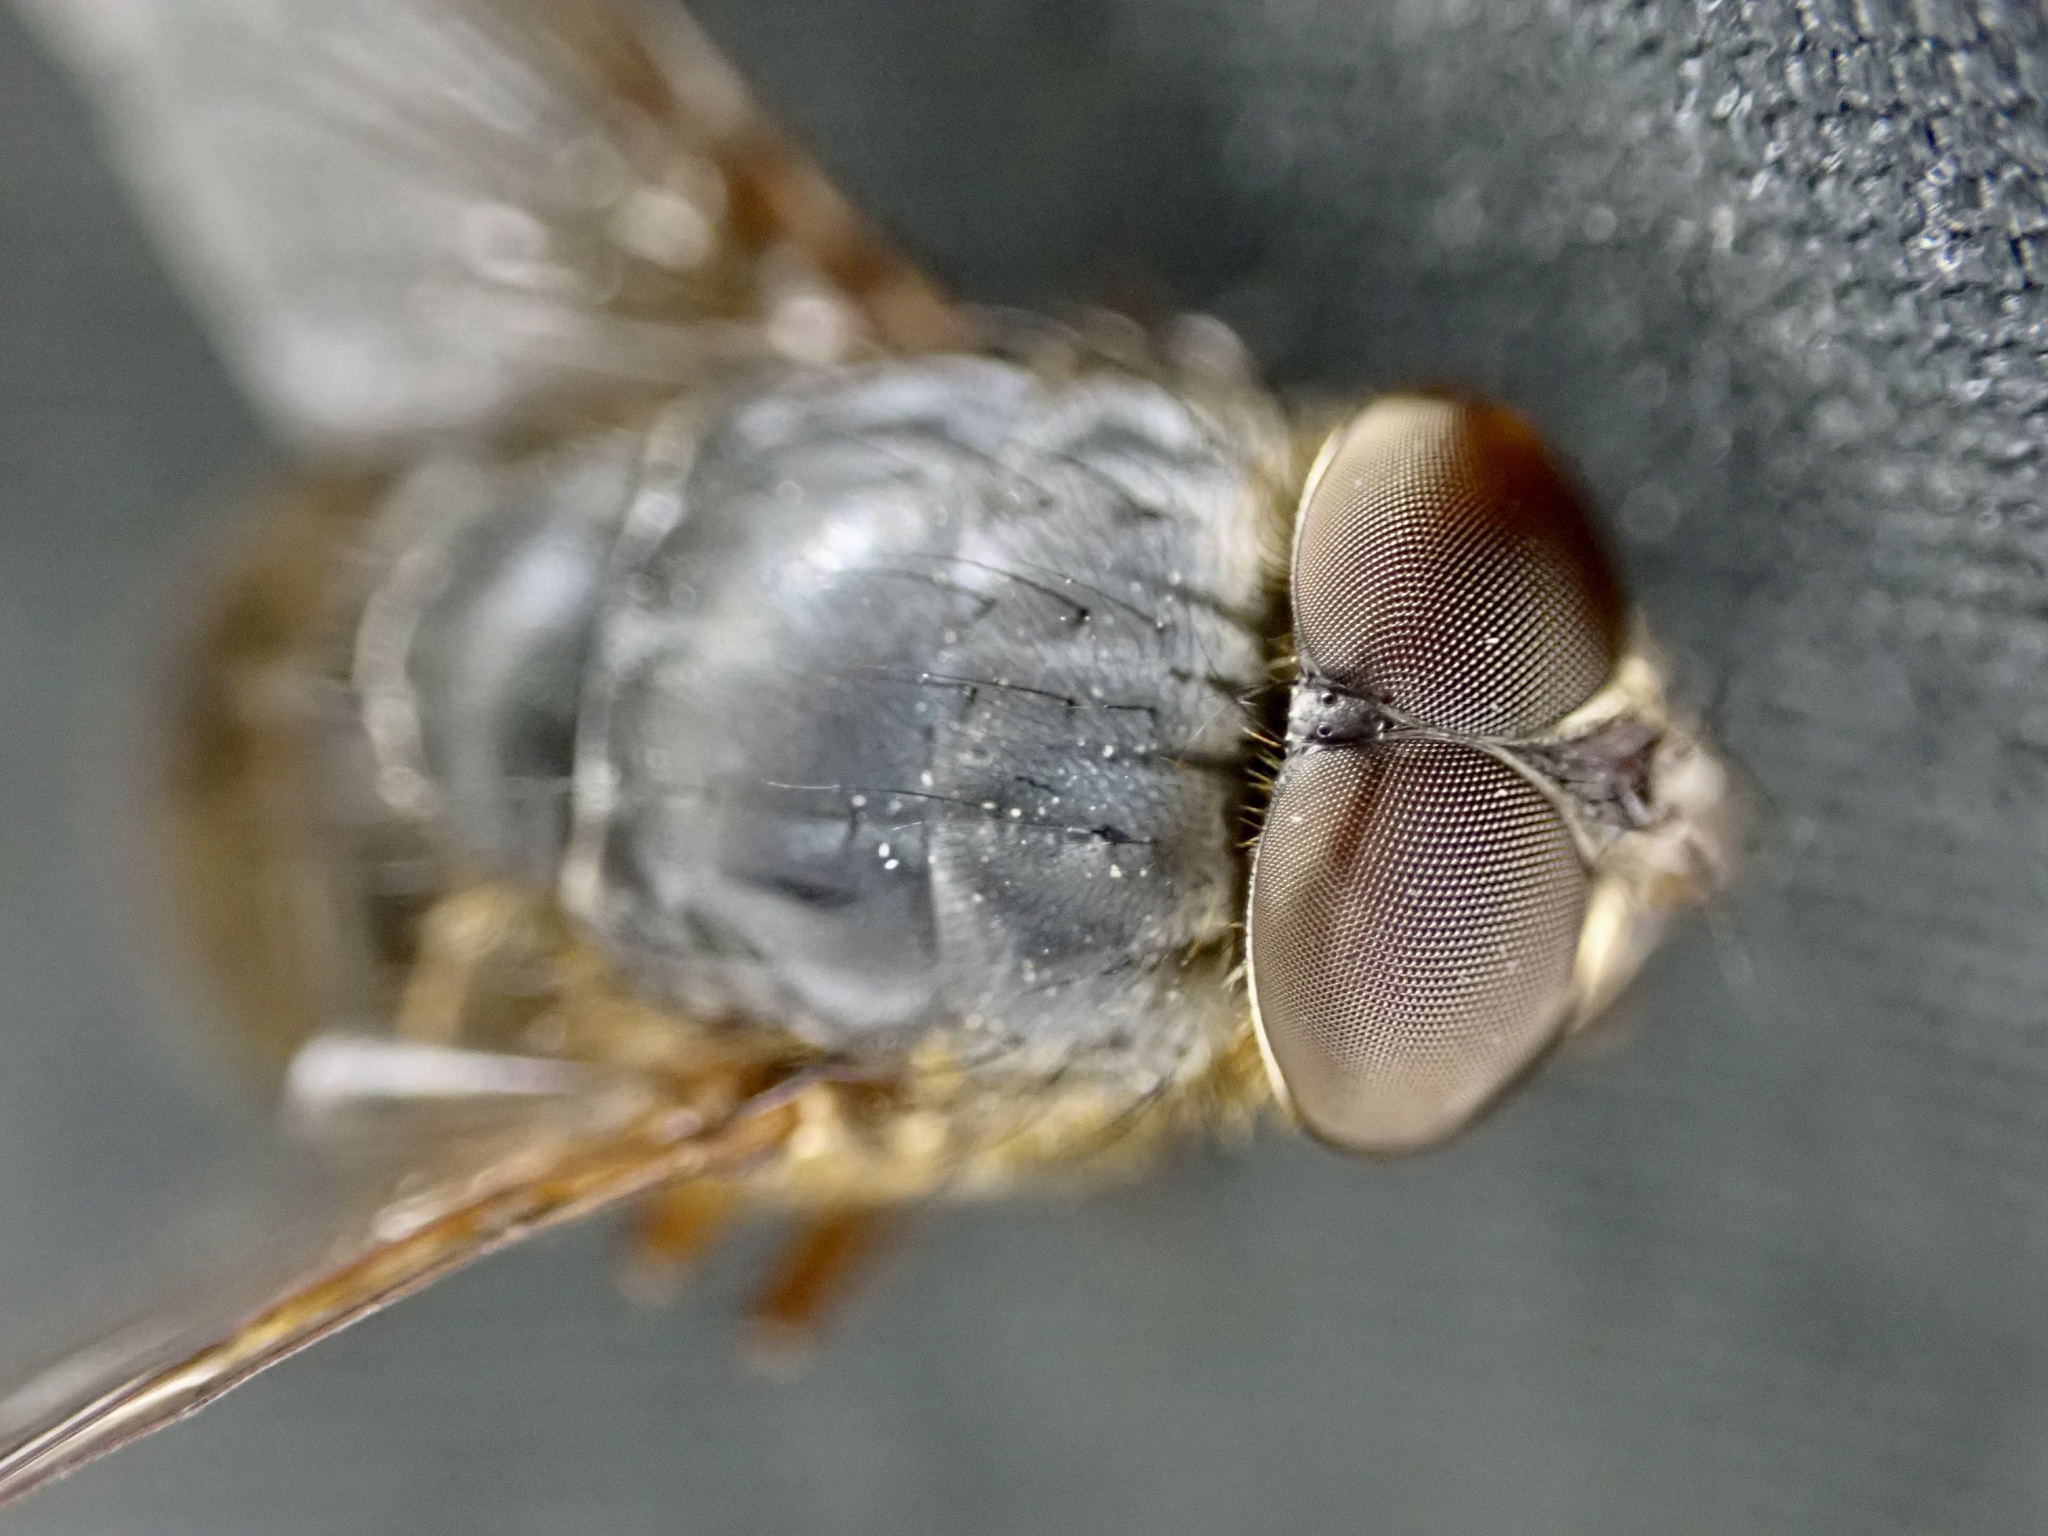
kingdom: Animalia
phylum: Arthropoda
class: Insecta
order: Diptera
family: Calliphoridae
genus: Calliphora
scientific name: Calliphora stygia
